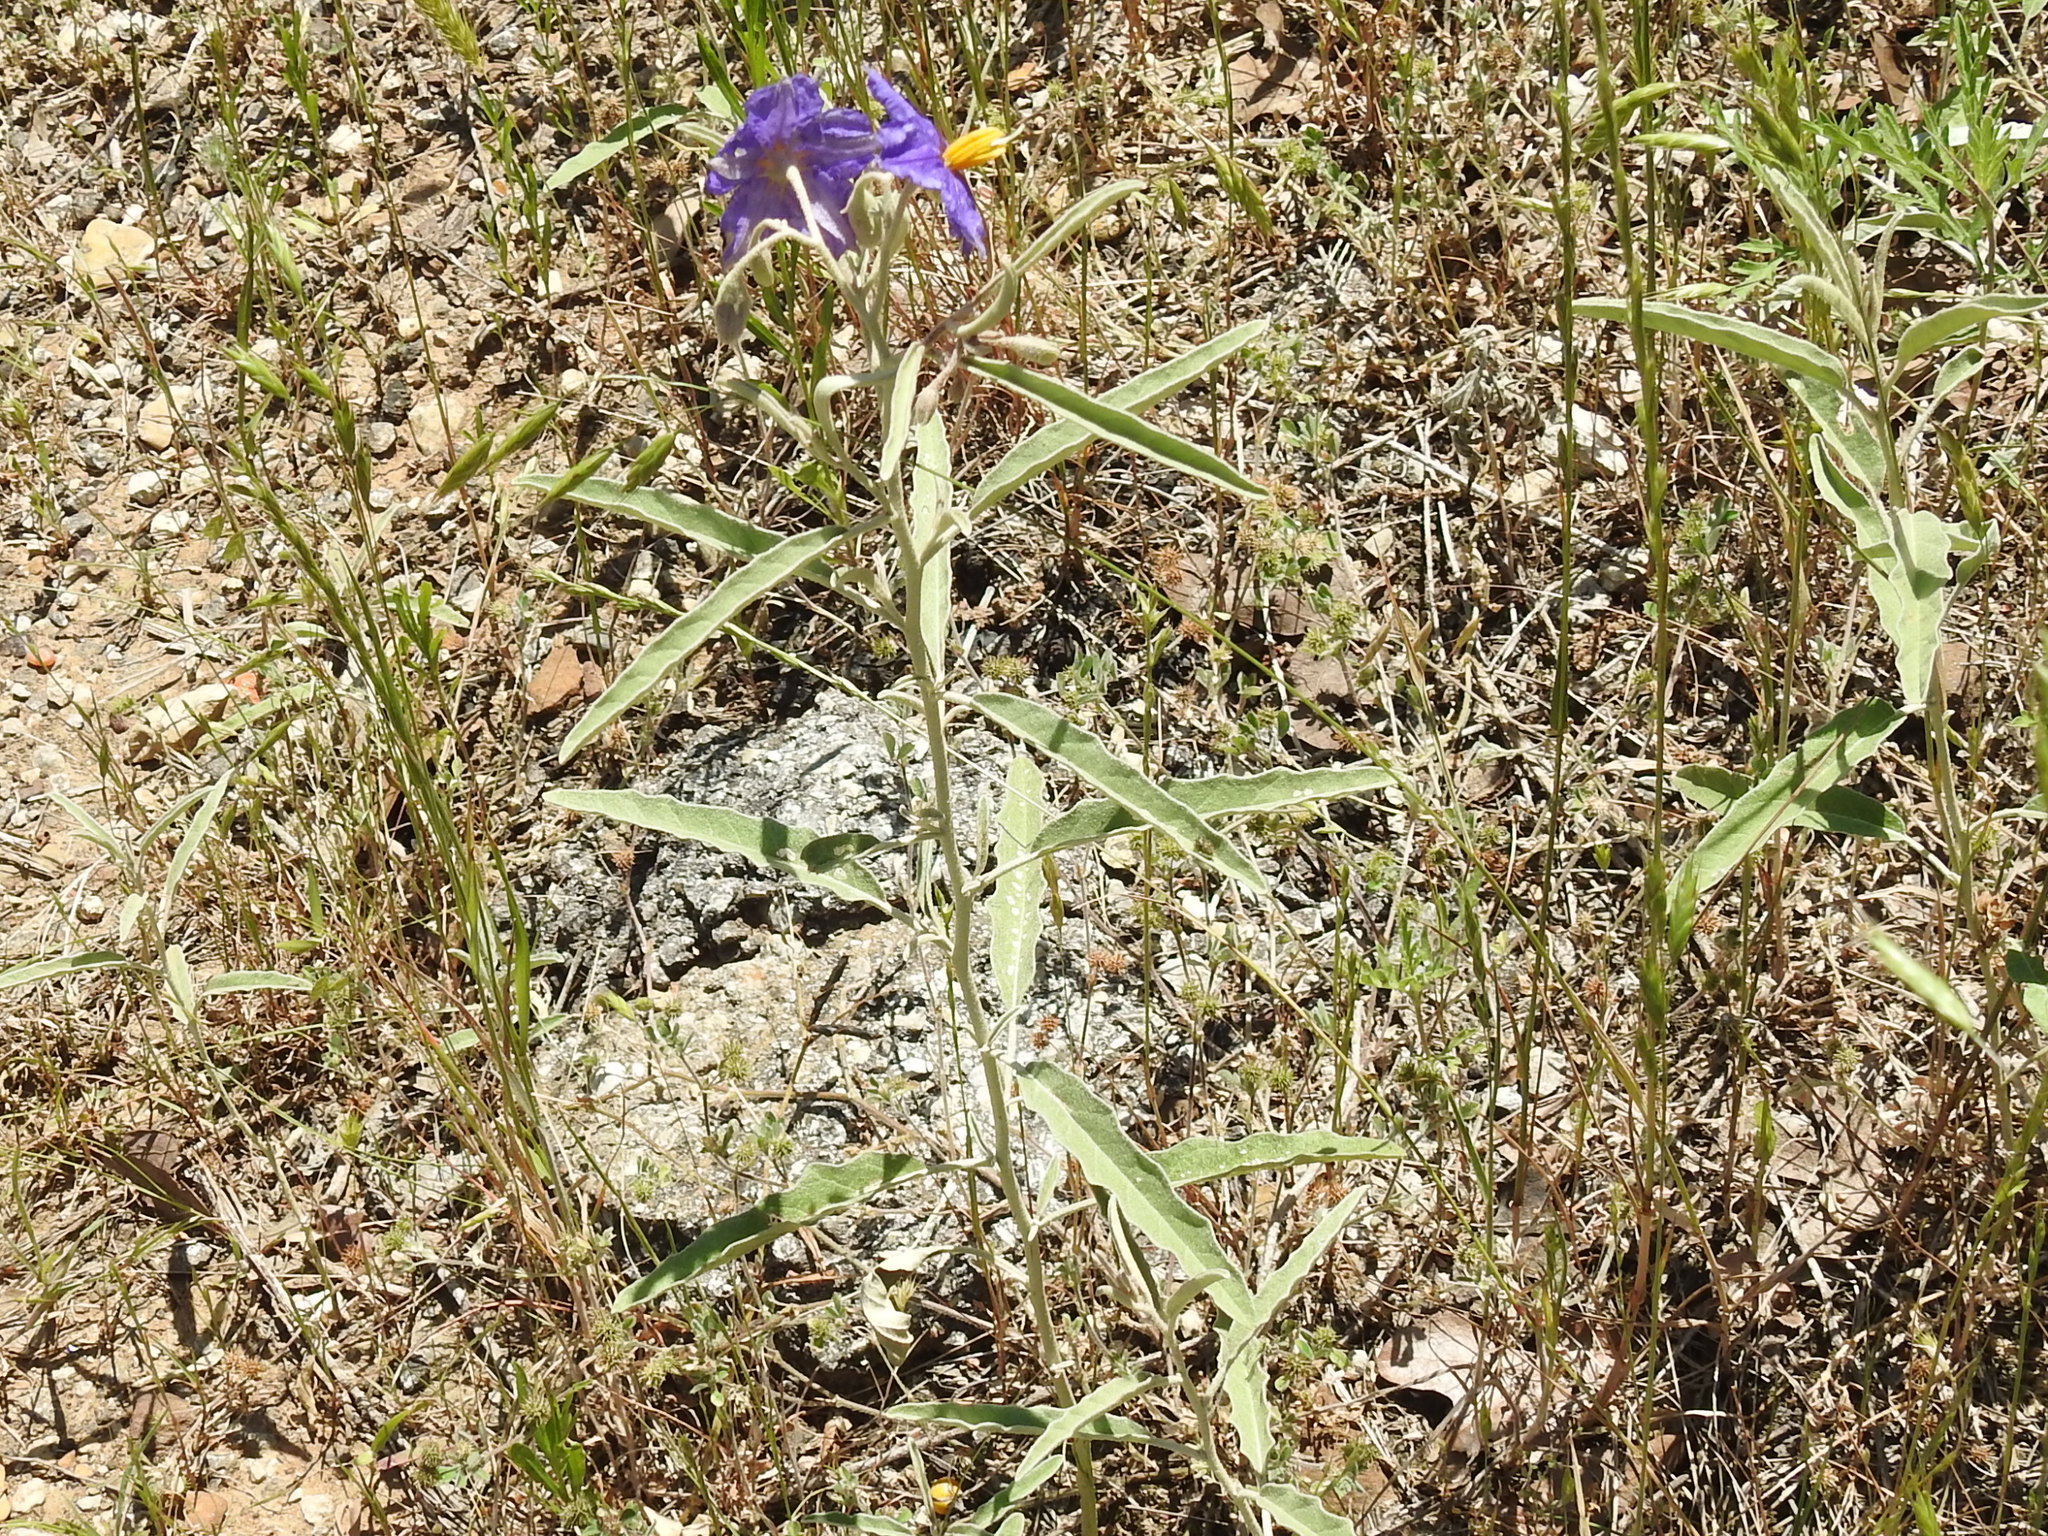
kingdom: Plantae
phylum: Tracheophyta
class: Magnoliopsida
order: Solanales
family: Solanaceae
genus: Solanum
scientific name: Solanum elaeagnifolium
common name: Silverleaf nightshade
